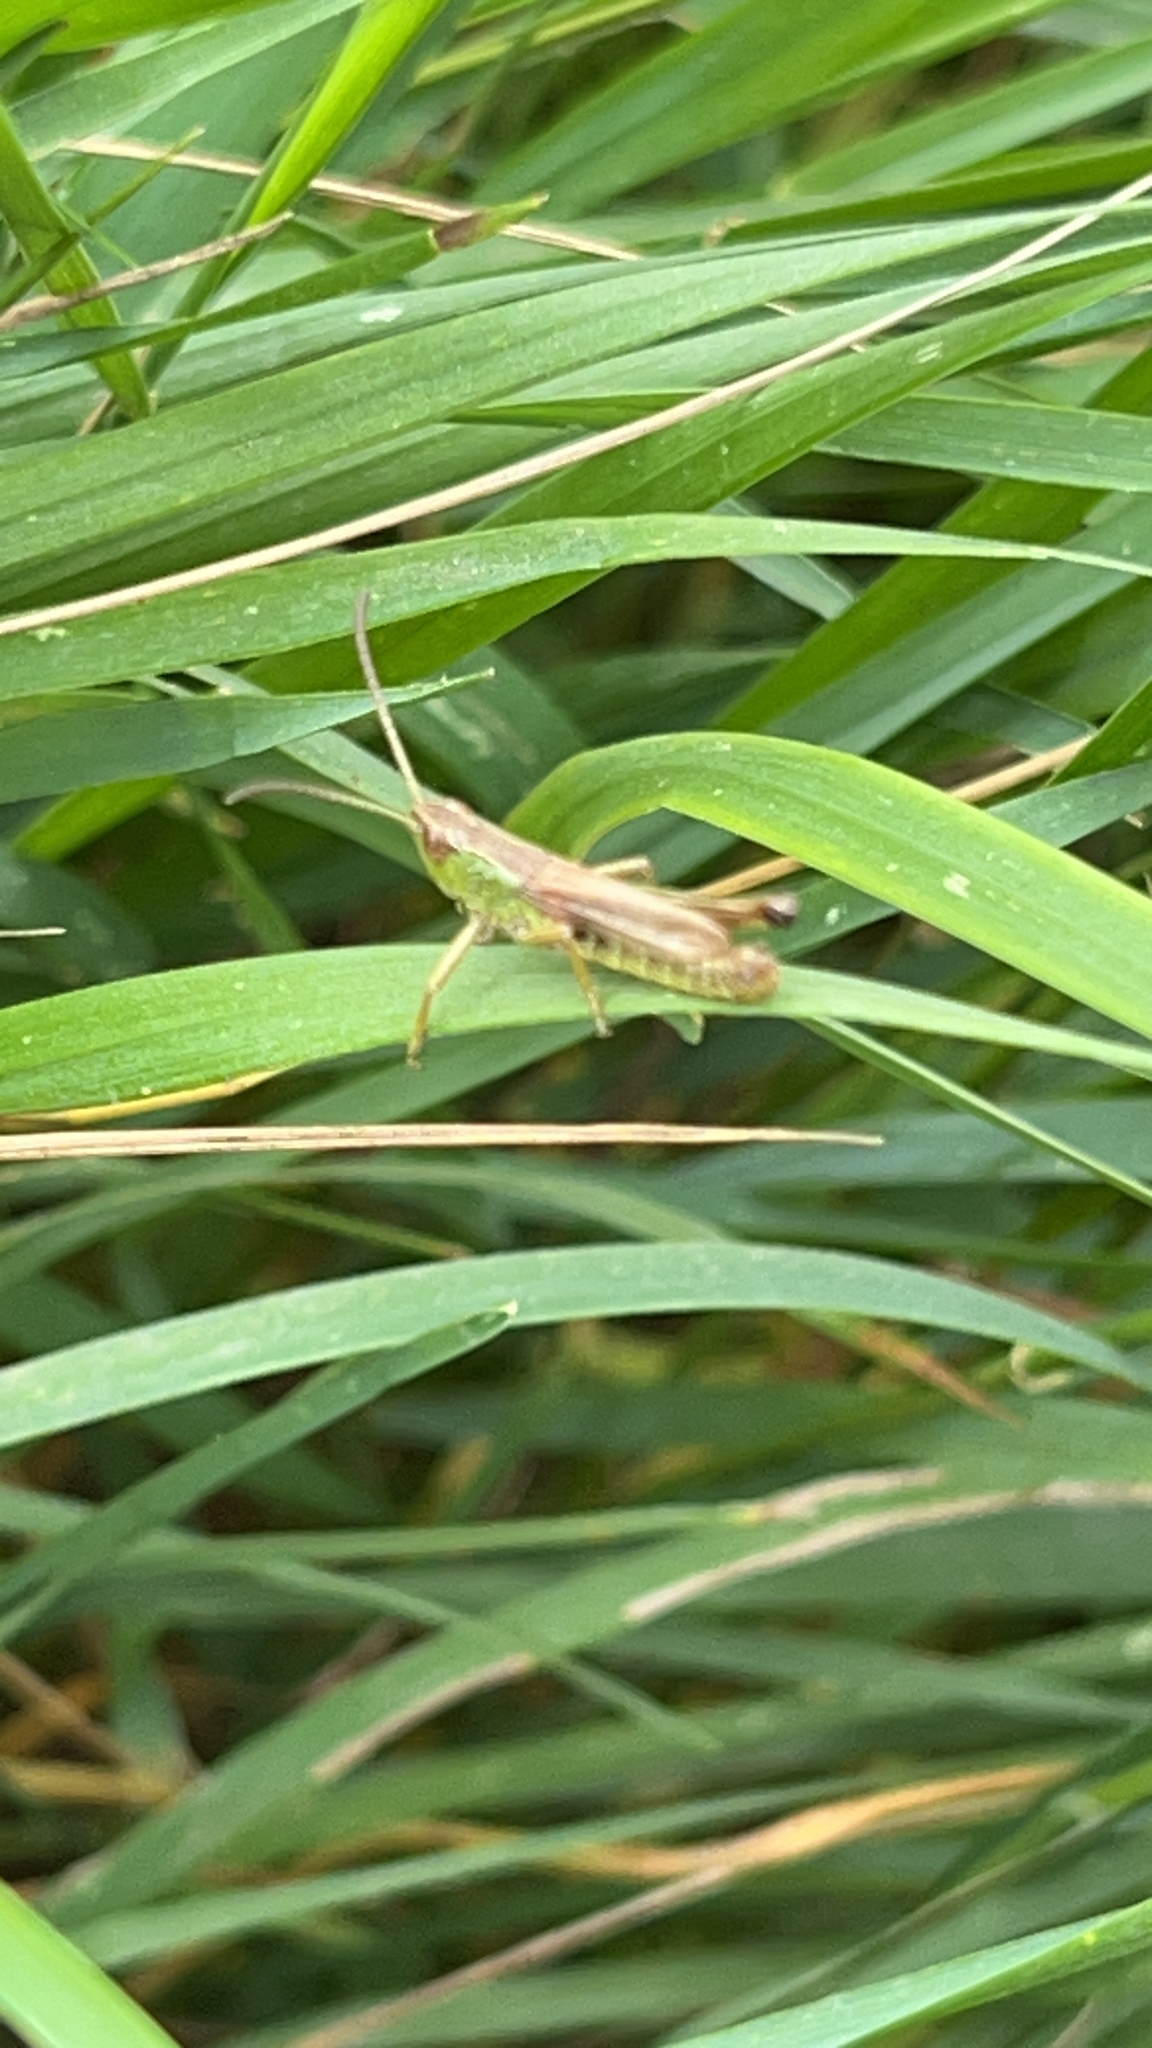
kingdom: Animalia
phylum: Arthropoda
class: Insecta
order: Orthoptera
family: Acrididae
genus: Pseudochorthippus
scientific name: Pseudochorthippus parallelus
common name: Meadow grasshopper
